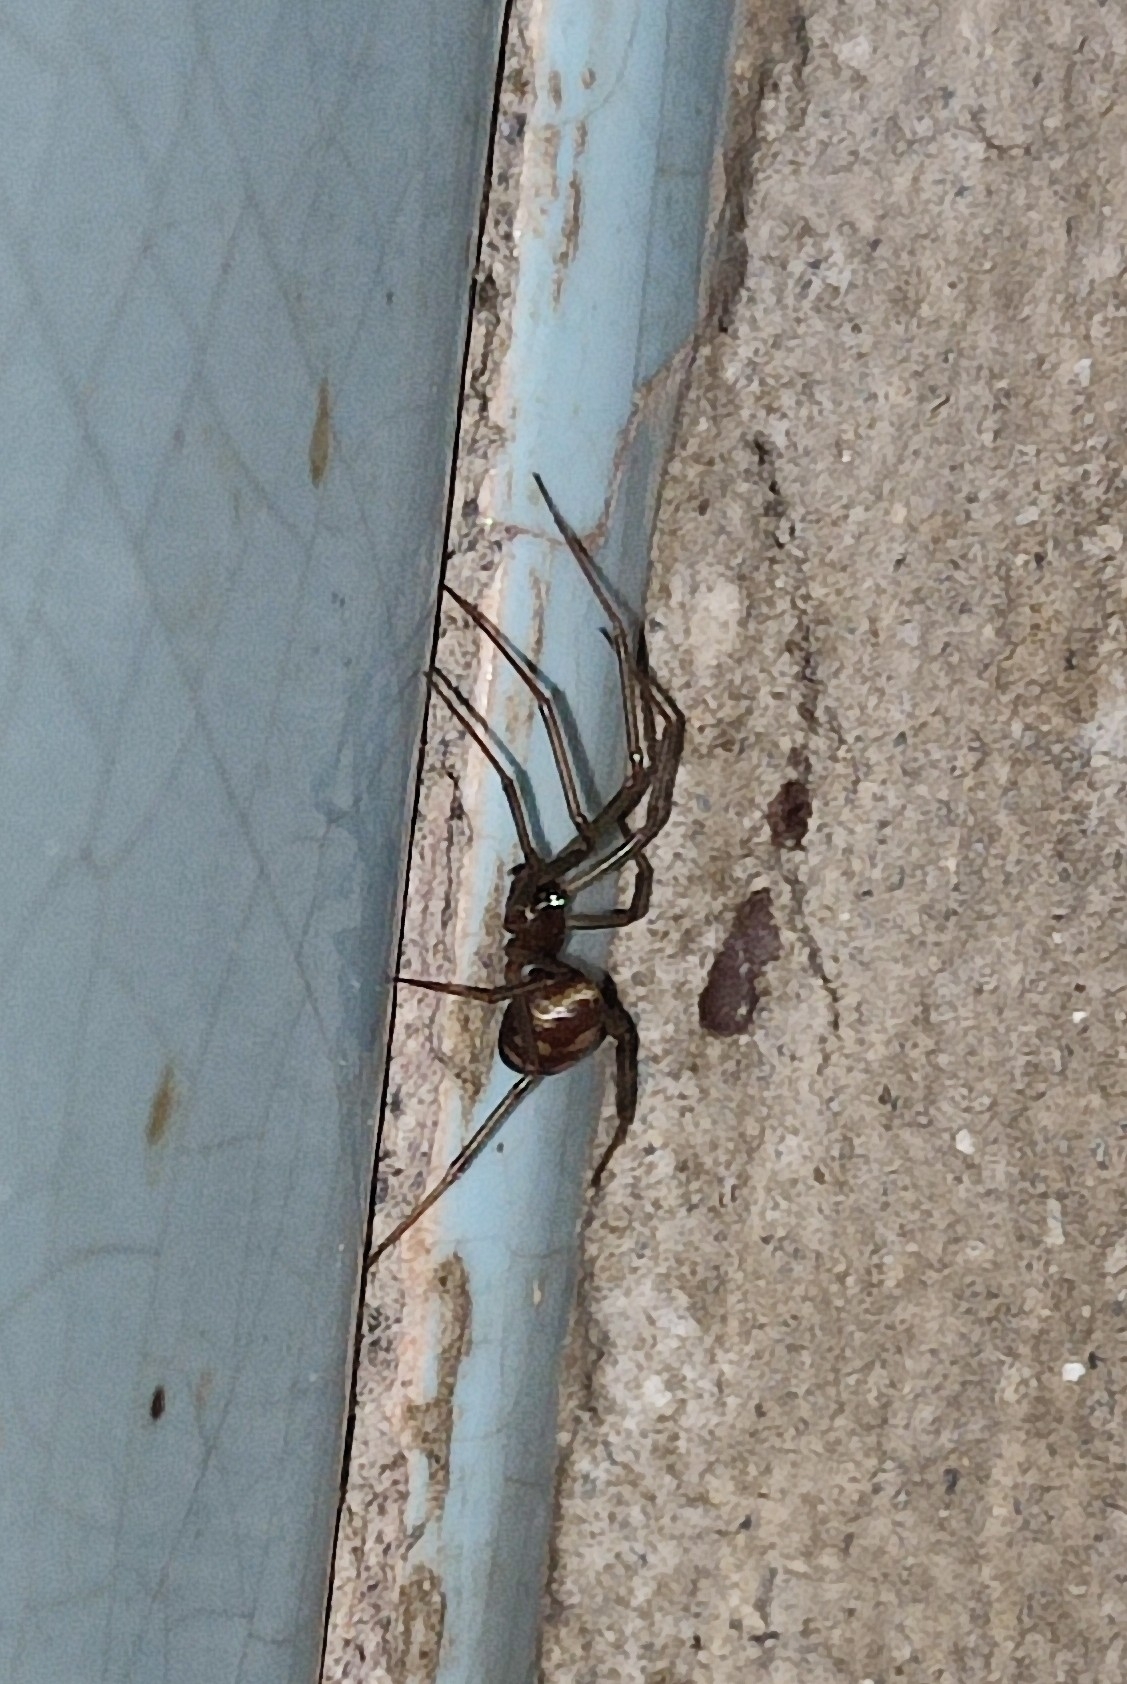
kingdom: Animalia
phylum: Arthropoda
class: Arachnida
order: Araneae
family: Theridiidae
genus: Steatoda
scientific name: Steatoda grossa
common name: False black widow
